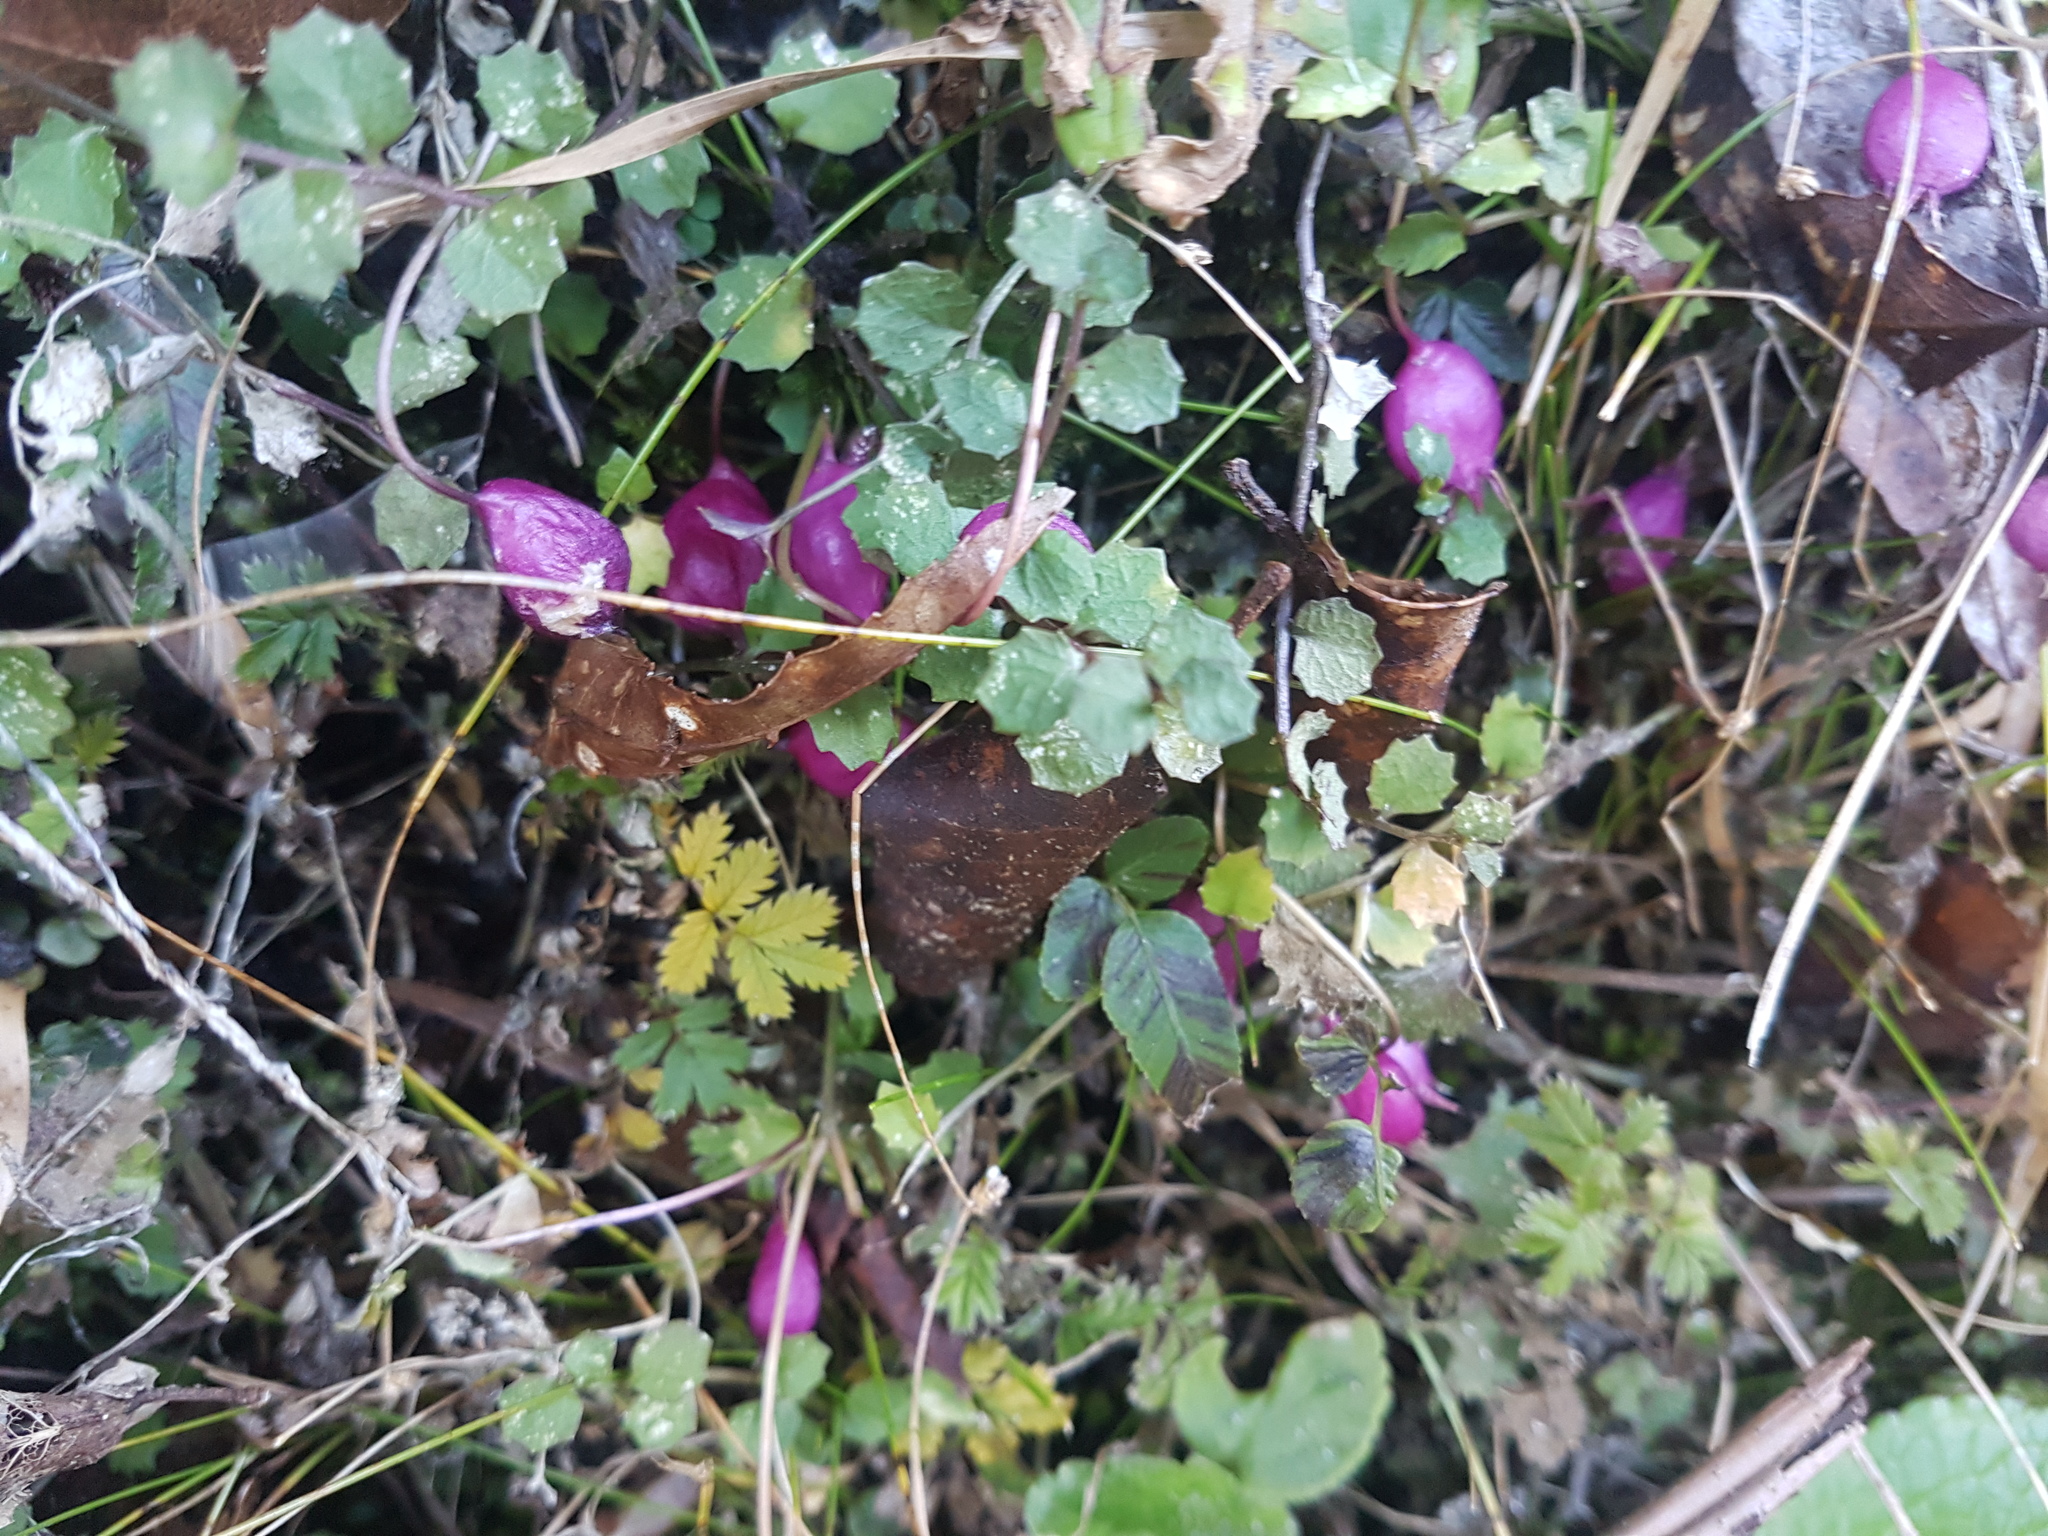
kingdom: Plantae
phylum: Tracheophyta
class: Magnoliopsida
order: Asterales
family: Campanulaceae
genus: Lobelia
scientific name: Lobelia angulata
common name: Lawn lobelia
